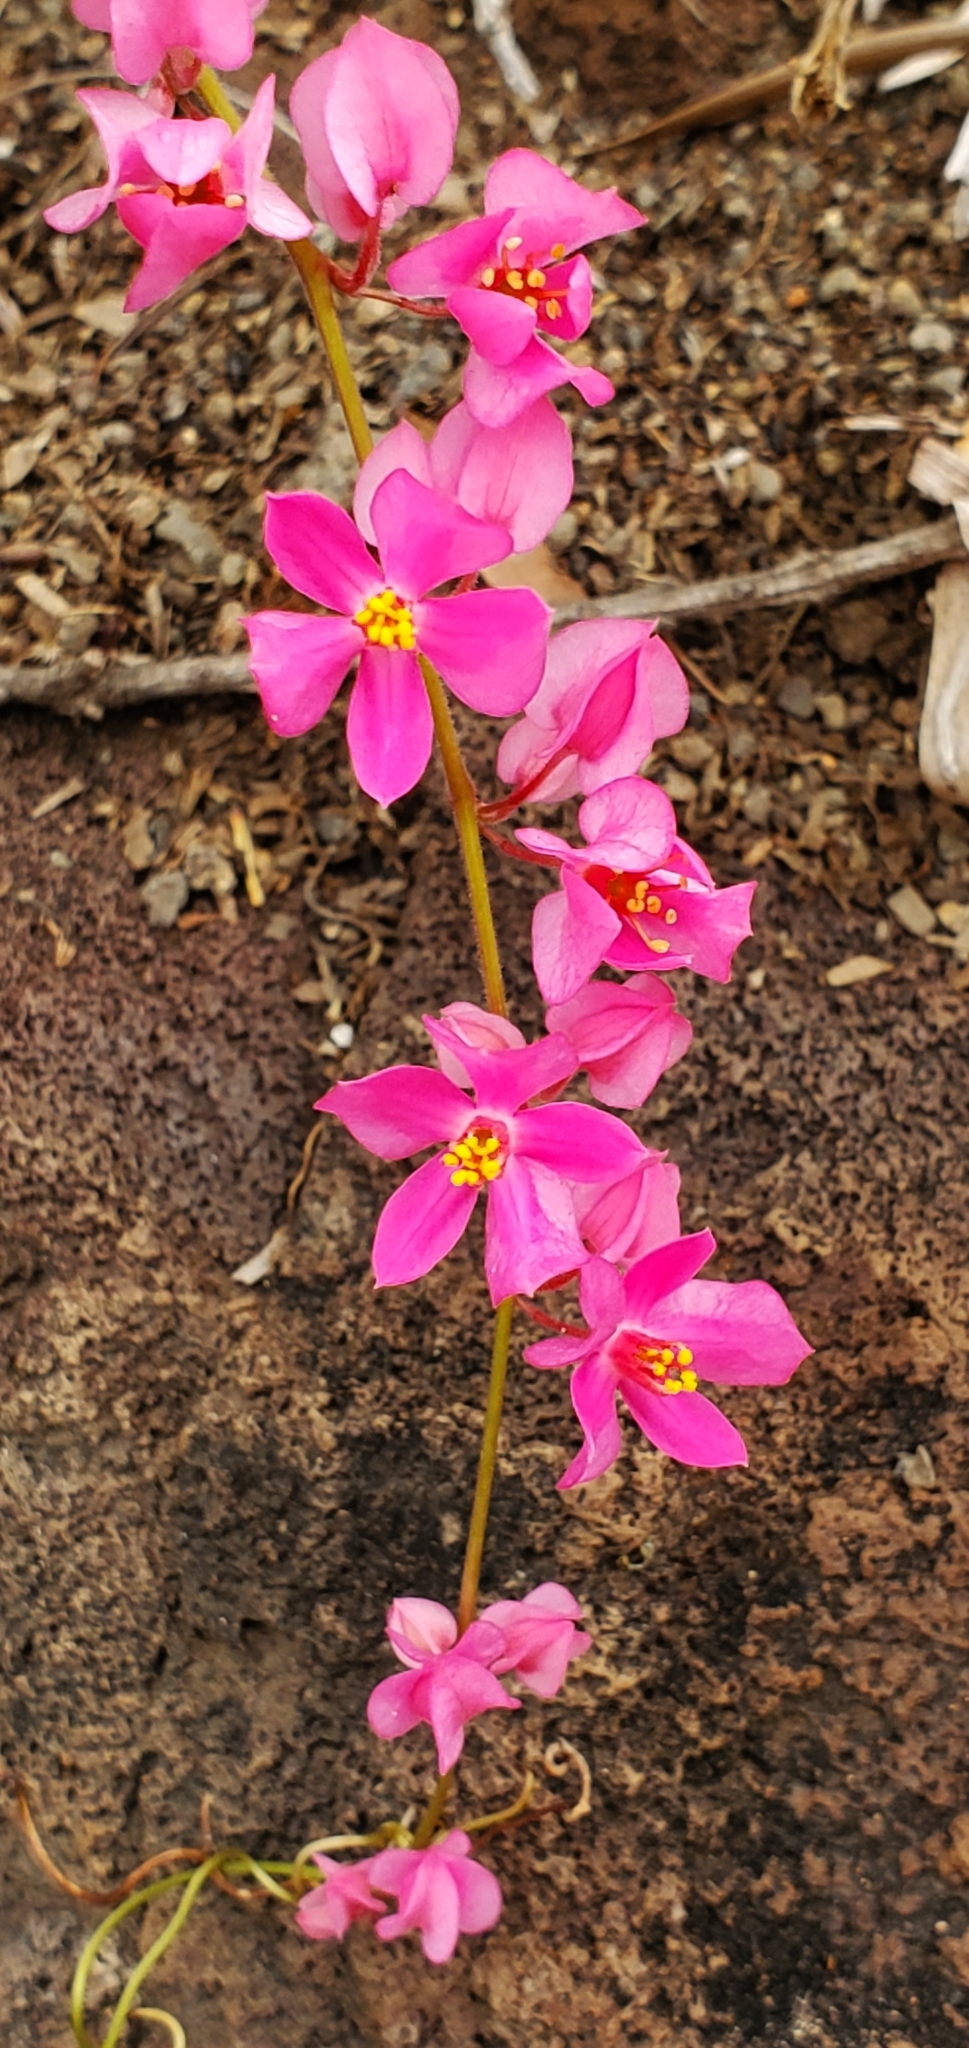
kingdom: Plantae
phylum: Tracheophyta
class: Magnoliopsida
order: Caryophyllales
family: Polygonaceae
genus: Antigonon
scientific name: Antigonon leptopus
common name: Coral vine
